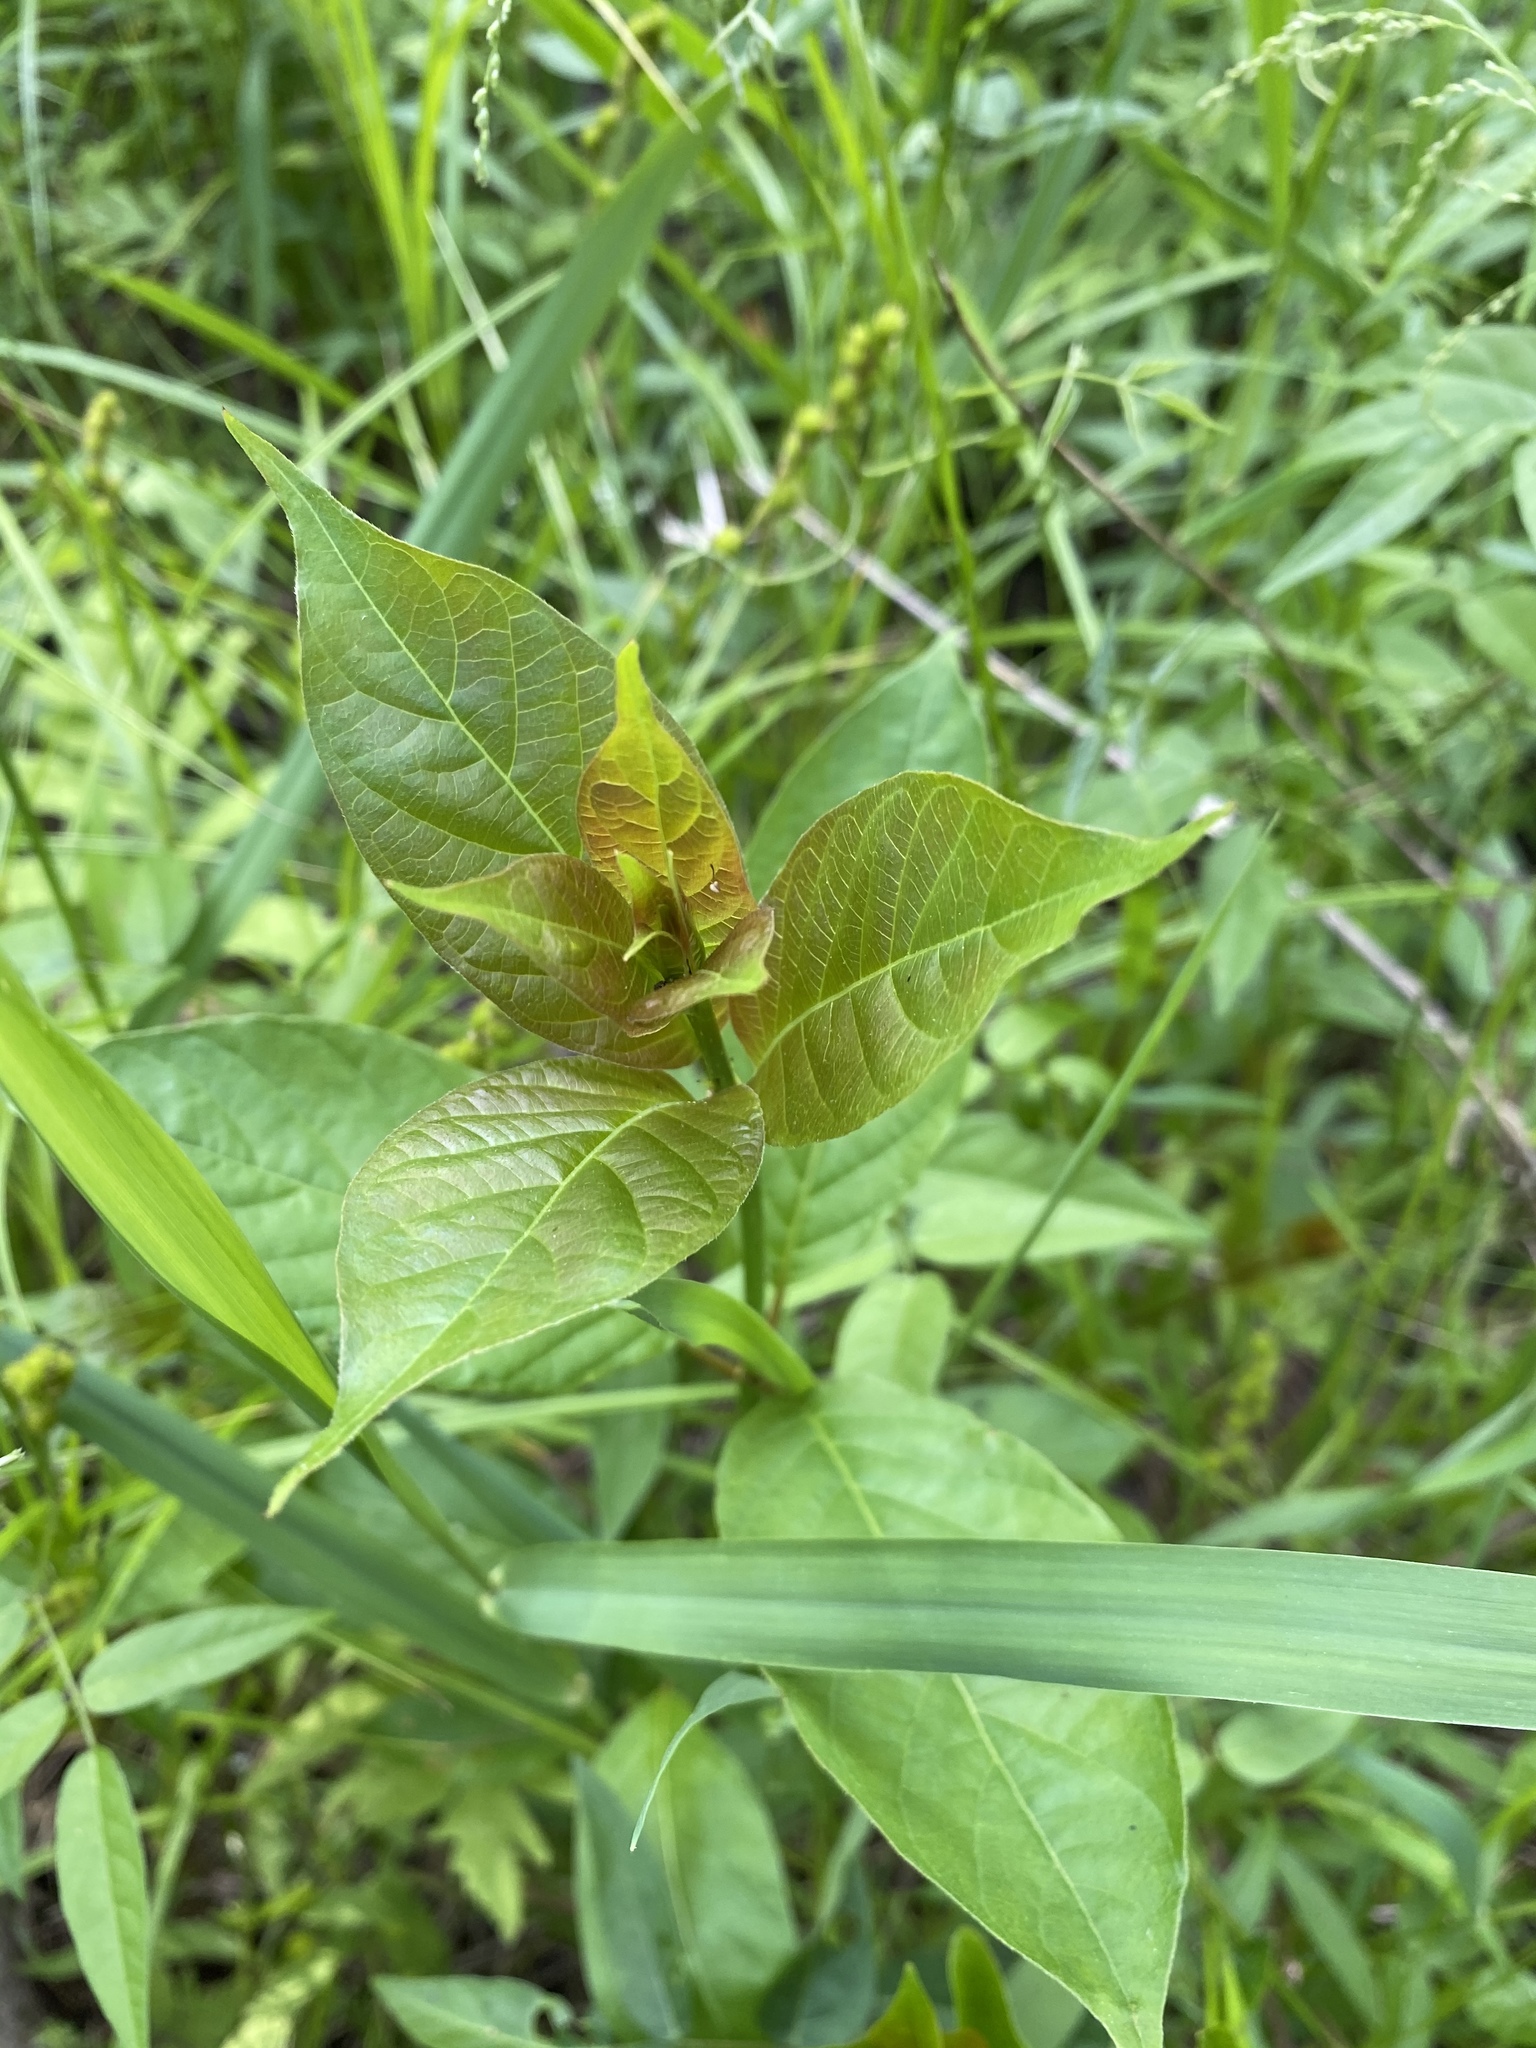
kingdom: Plantae
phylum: Tracheophyta
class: Magnoliopsida
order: Gentianales
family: Rubiaceae
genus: Cephalanthus
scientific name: Cephalanthus occidentalis
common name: Button-willow
